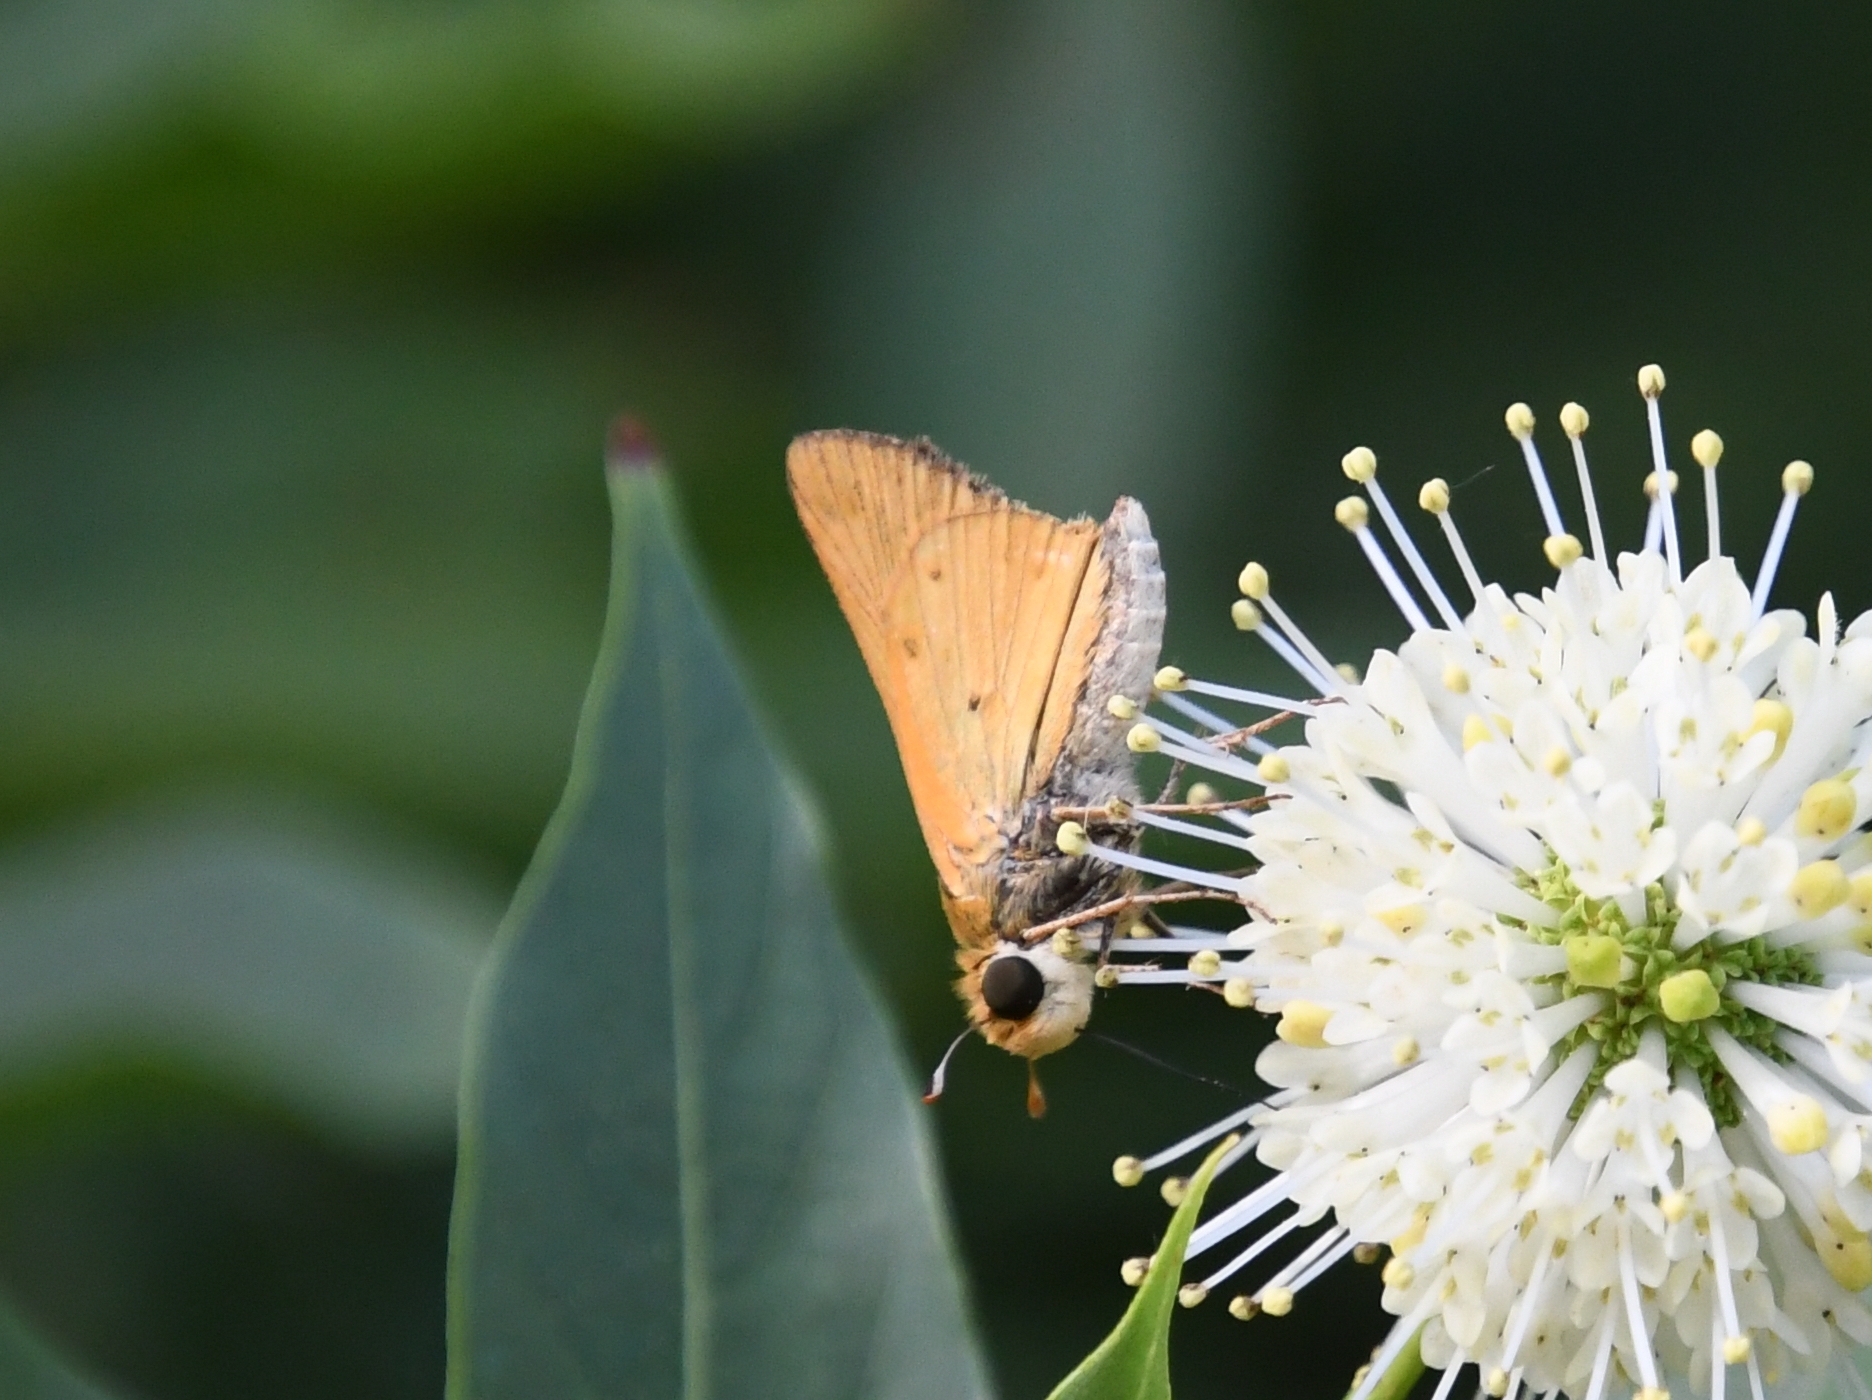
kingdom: Animalia
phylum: Arthropoda
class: Insecta
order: Lepidoptera
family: Hesperiidae
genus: Hylephila
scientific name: Hylephila phyleus
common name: Fiery skipper
